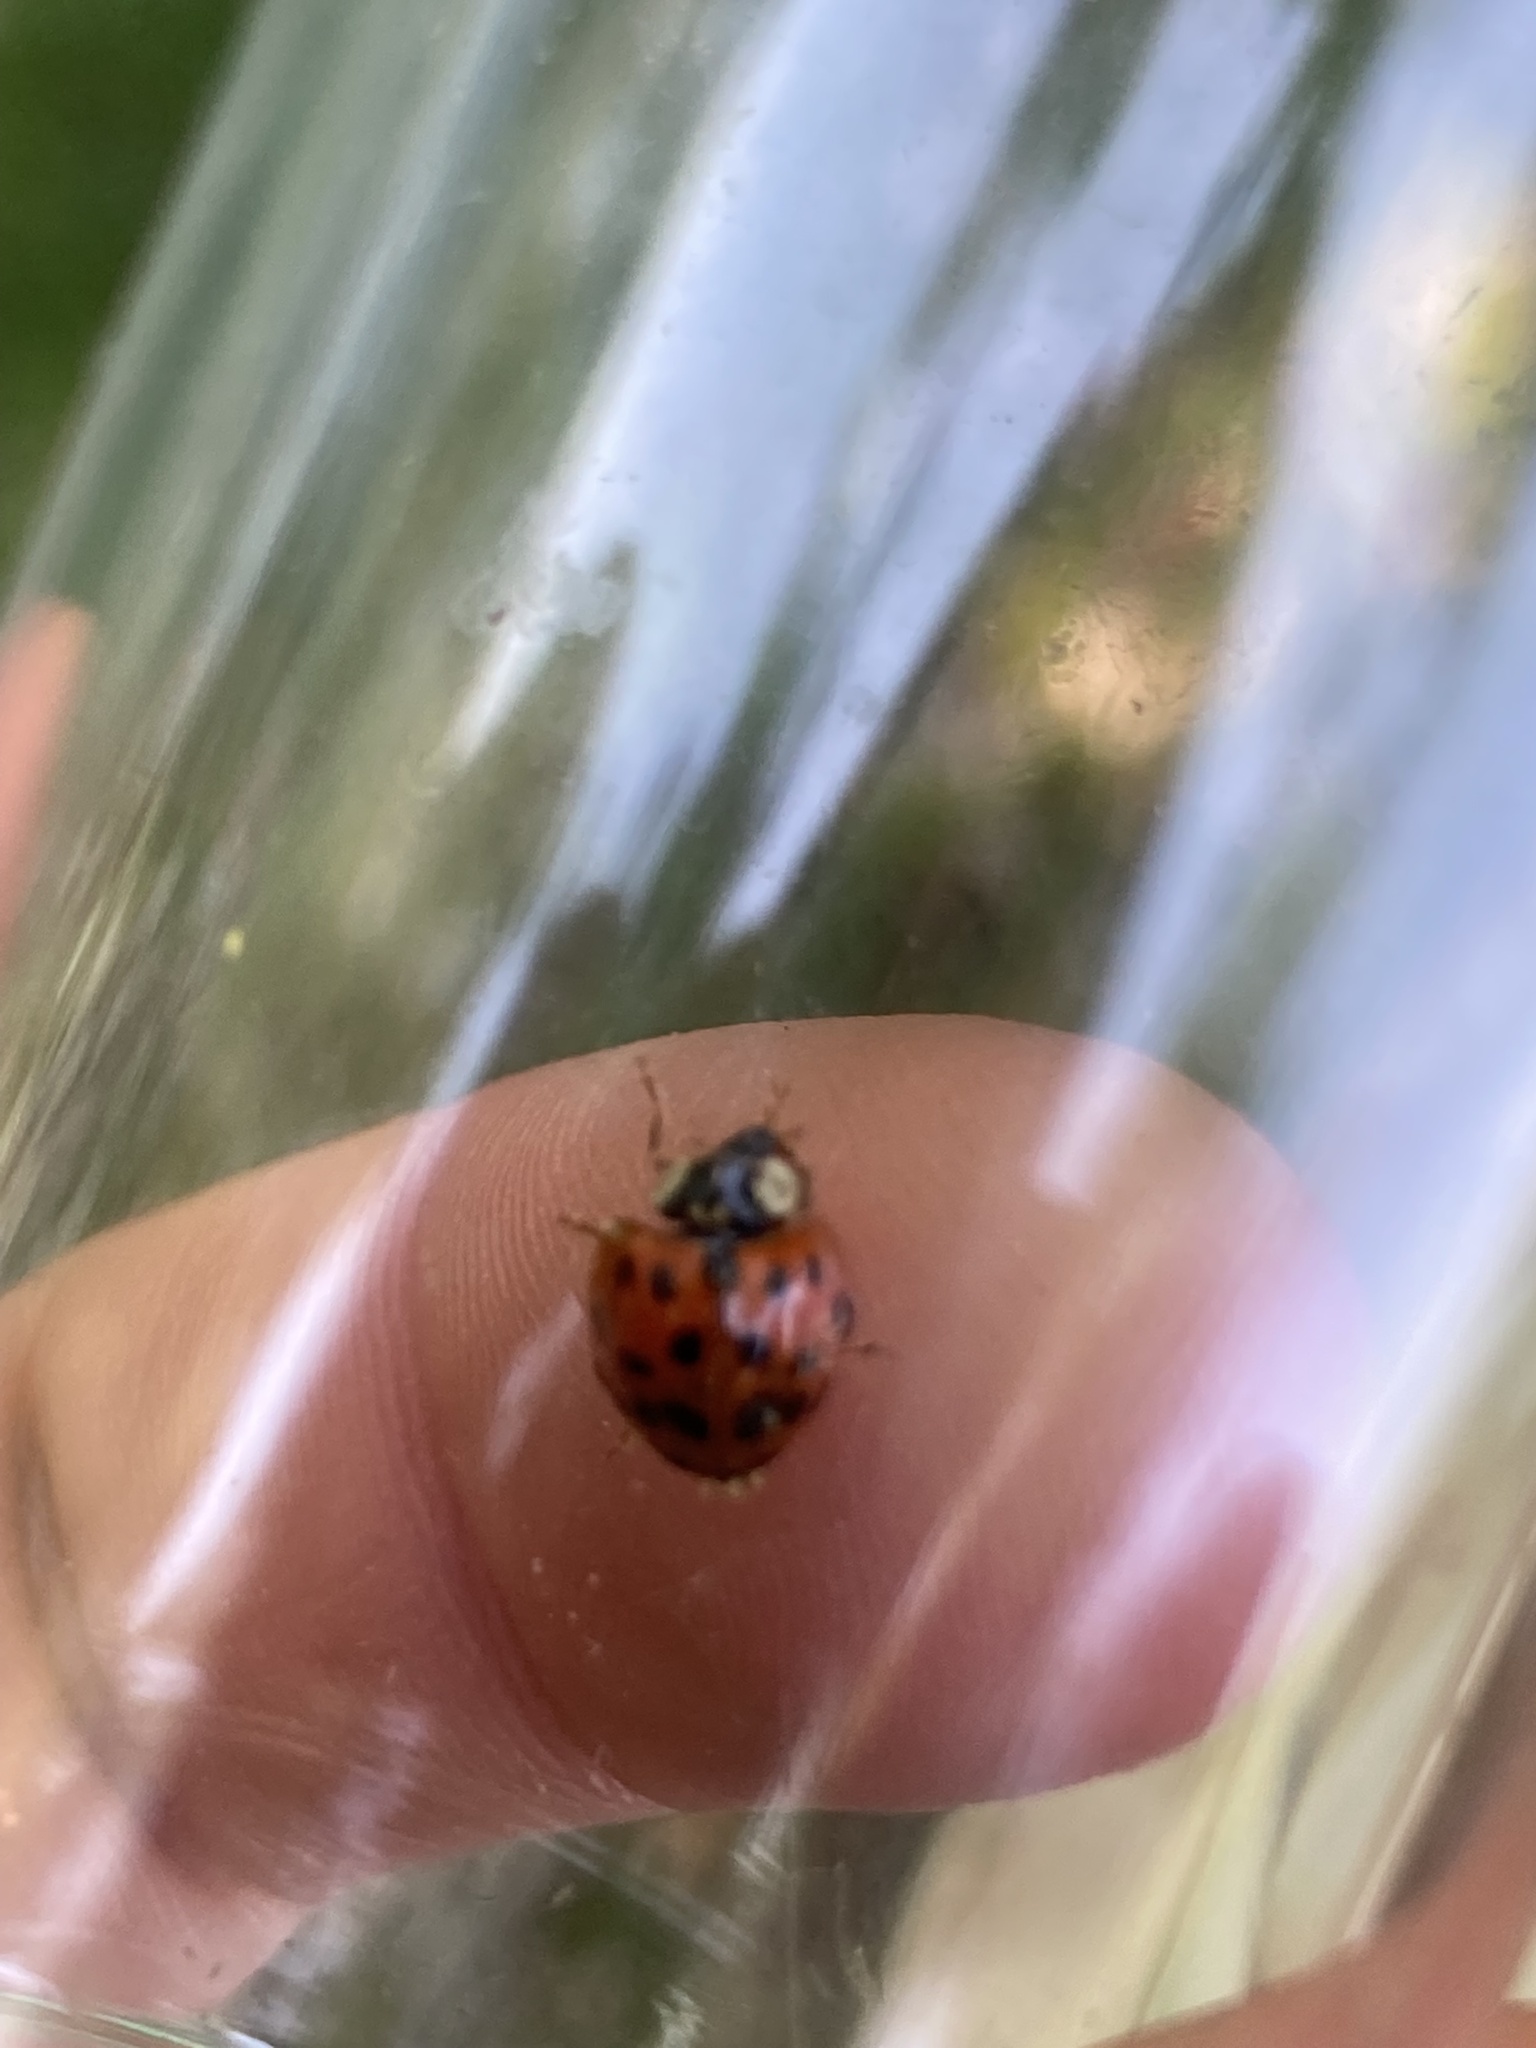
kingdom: Animalia
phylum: Arthropoda
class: Insecta
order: Coleoptera
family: Coccinellidae
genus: Harmonia
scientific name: Harmonia axyridis
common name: Harlequin ladybird
